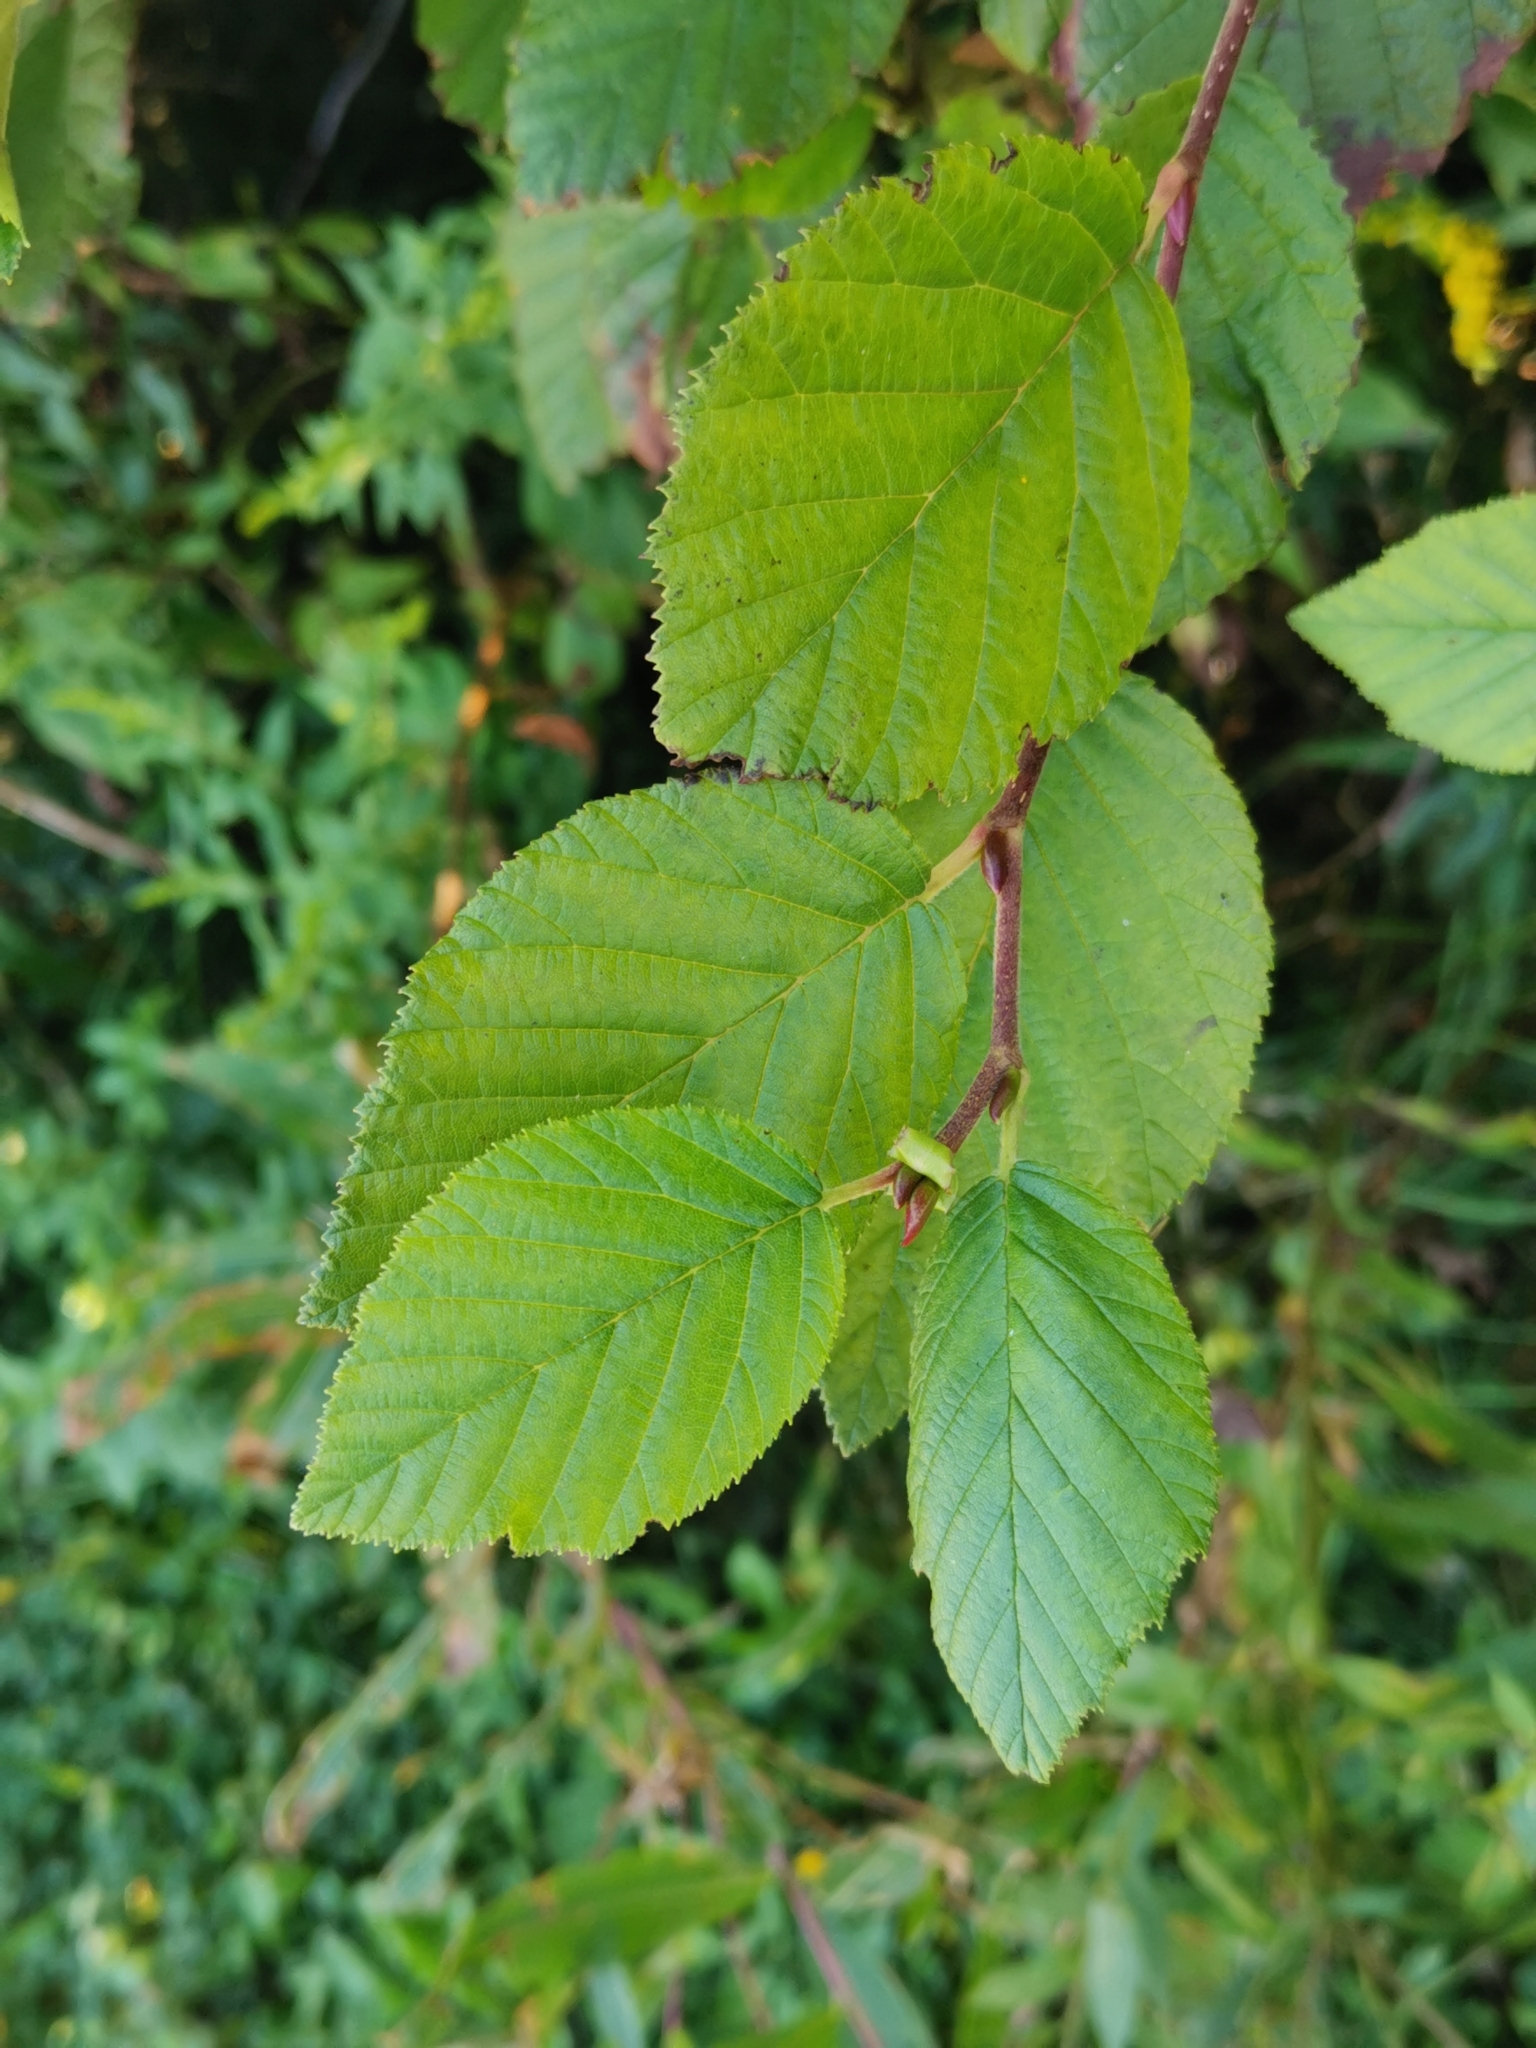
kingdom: Plantae
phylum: Tracheophyta
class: Magnoliopsida
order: Fagales
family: Betulaceae
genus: Alnus
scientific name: Alnus alnobetula
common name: Green alder
